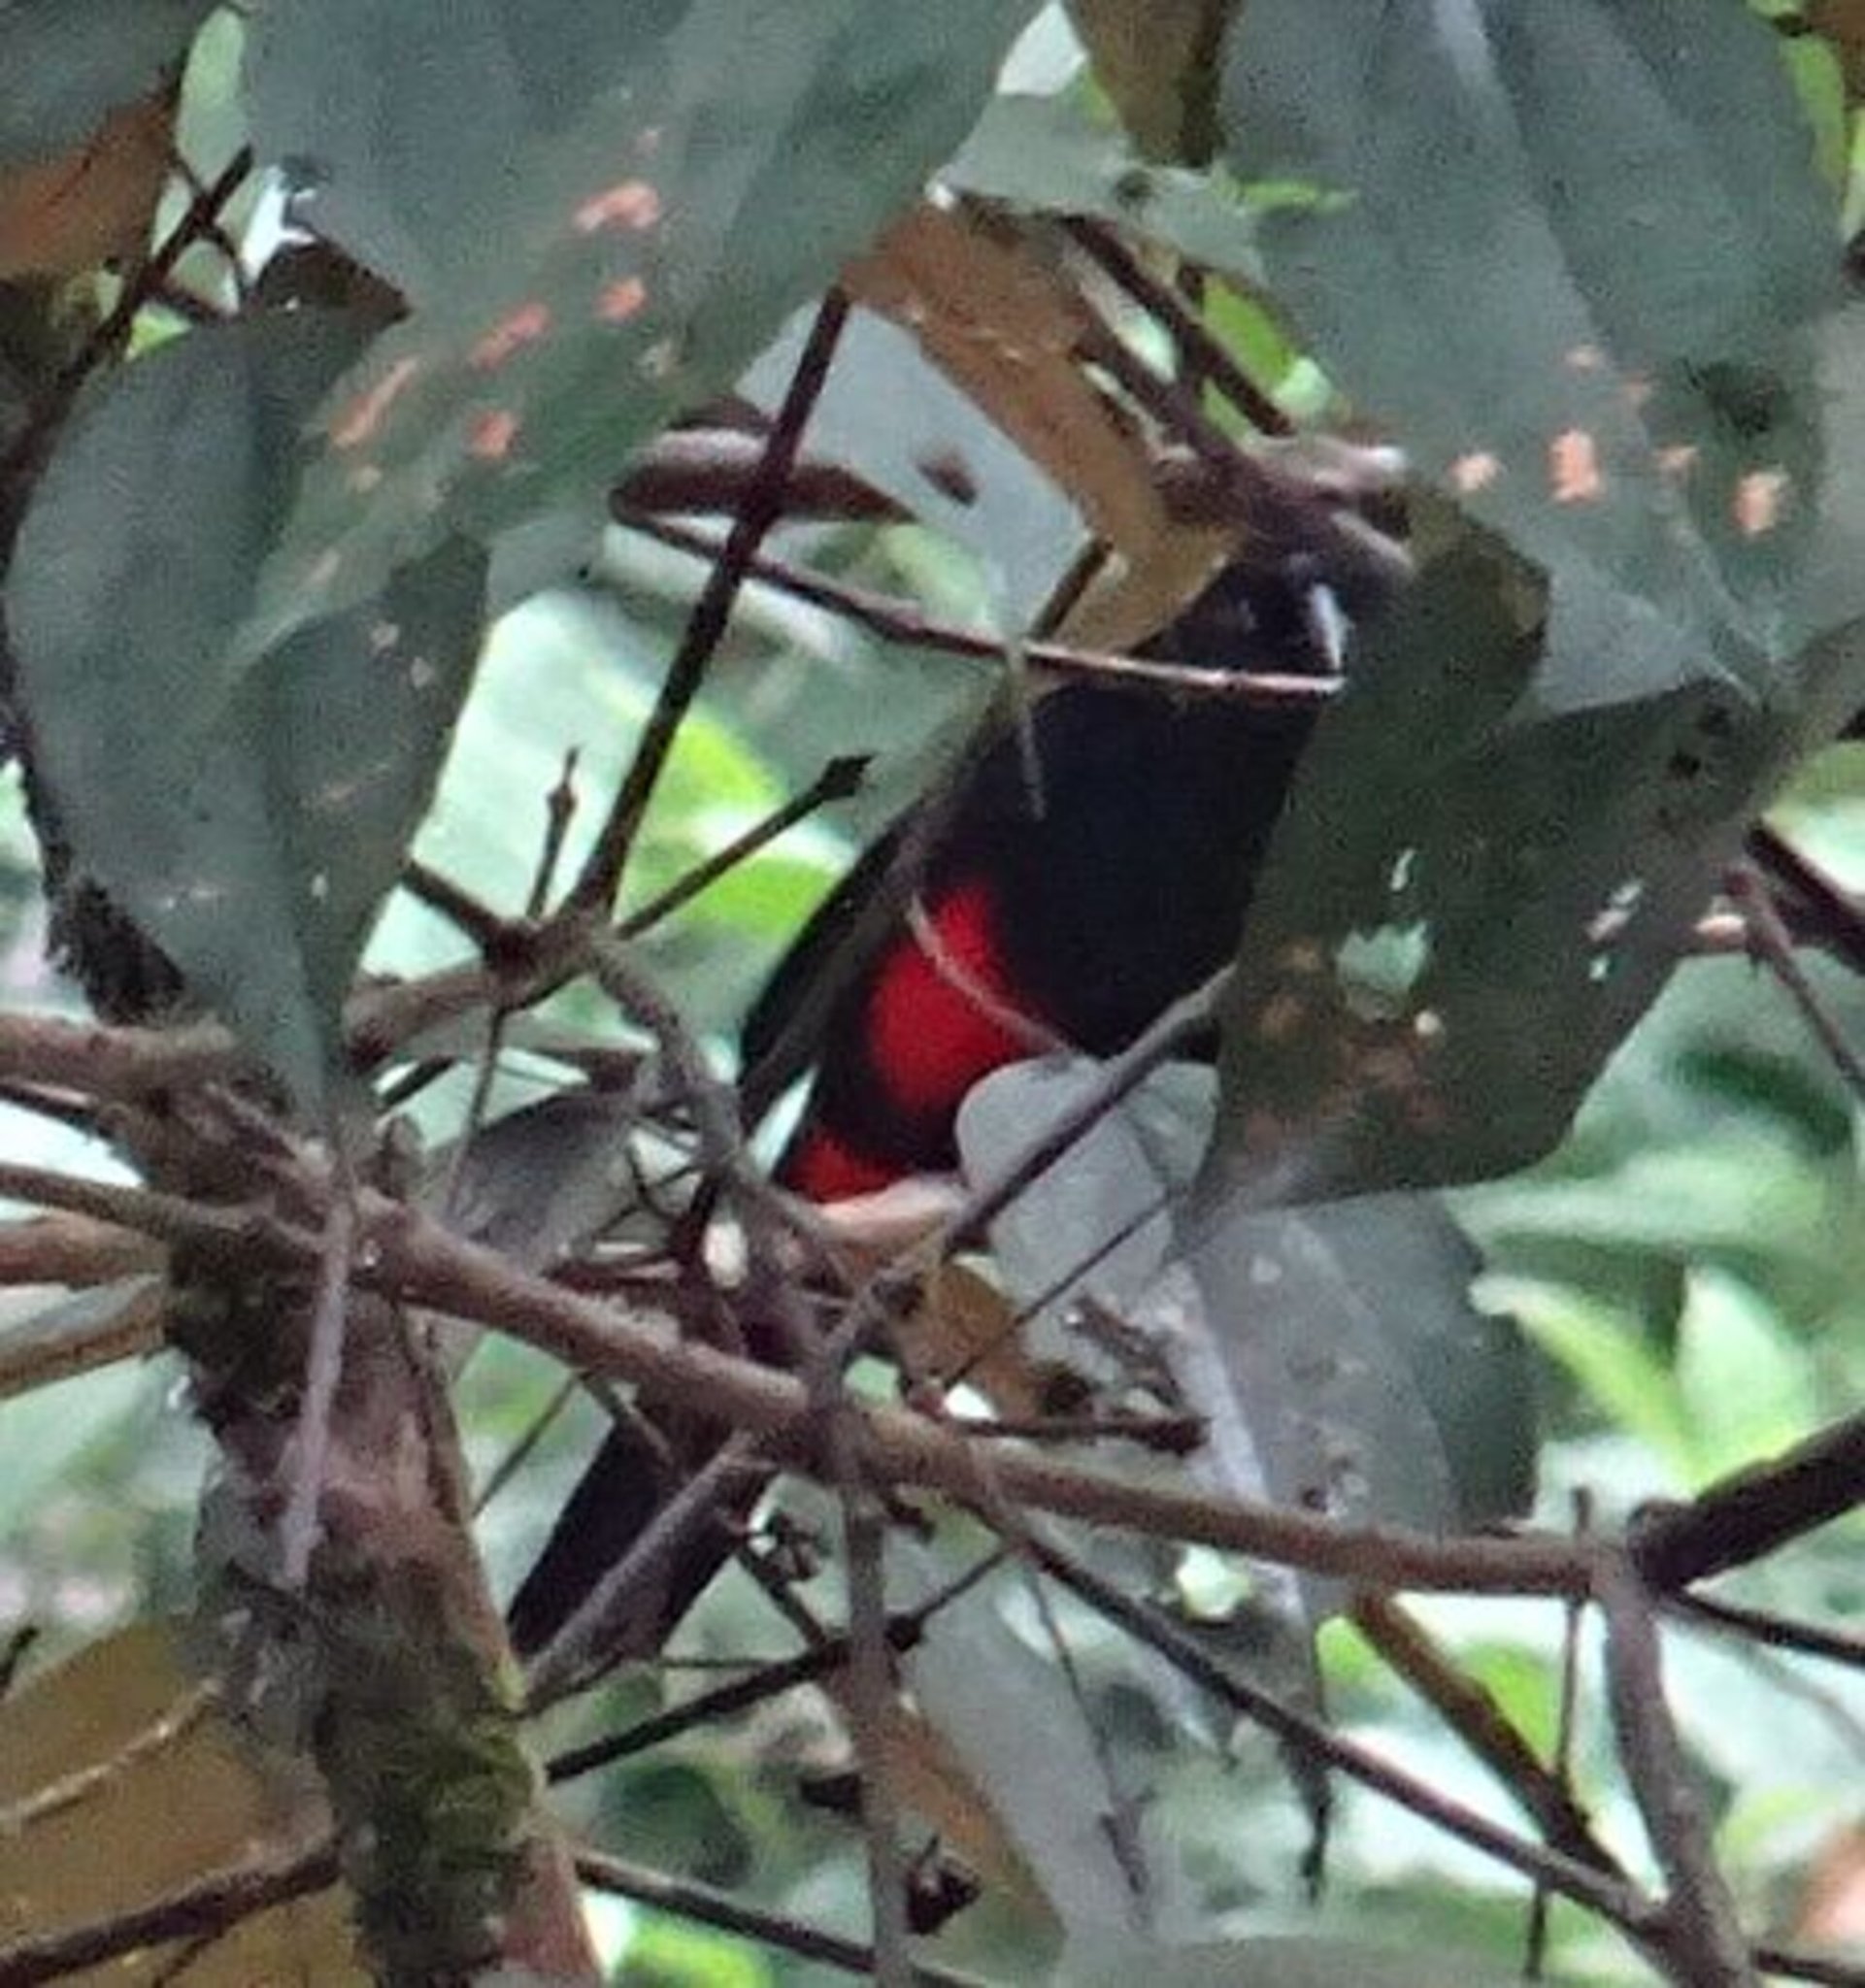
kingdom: Animalia
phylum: Chordata
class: Aves
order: Passeriformes
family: Icteridae
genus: Hypopyrrhus
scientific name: Hypopyrrhus pyrohypogaster
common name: Red-bellied grackle
